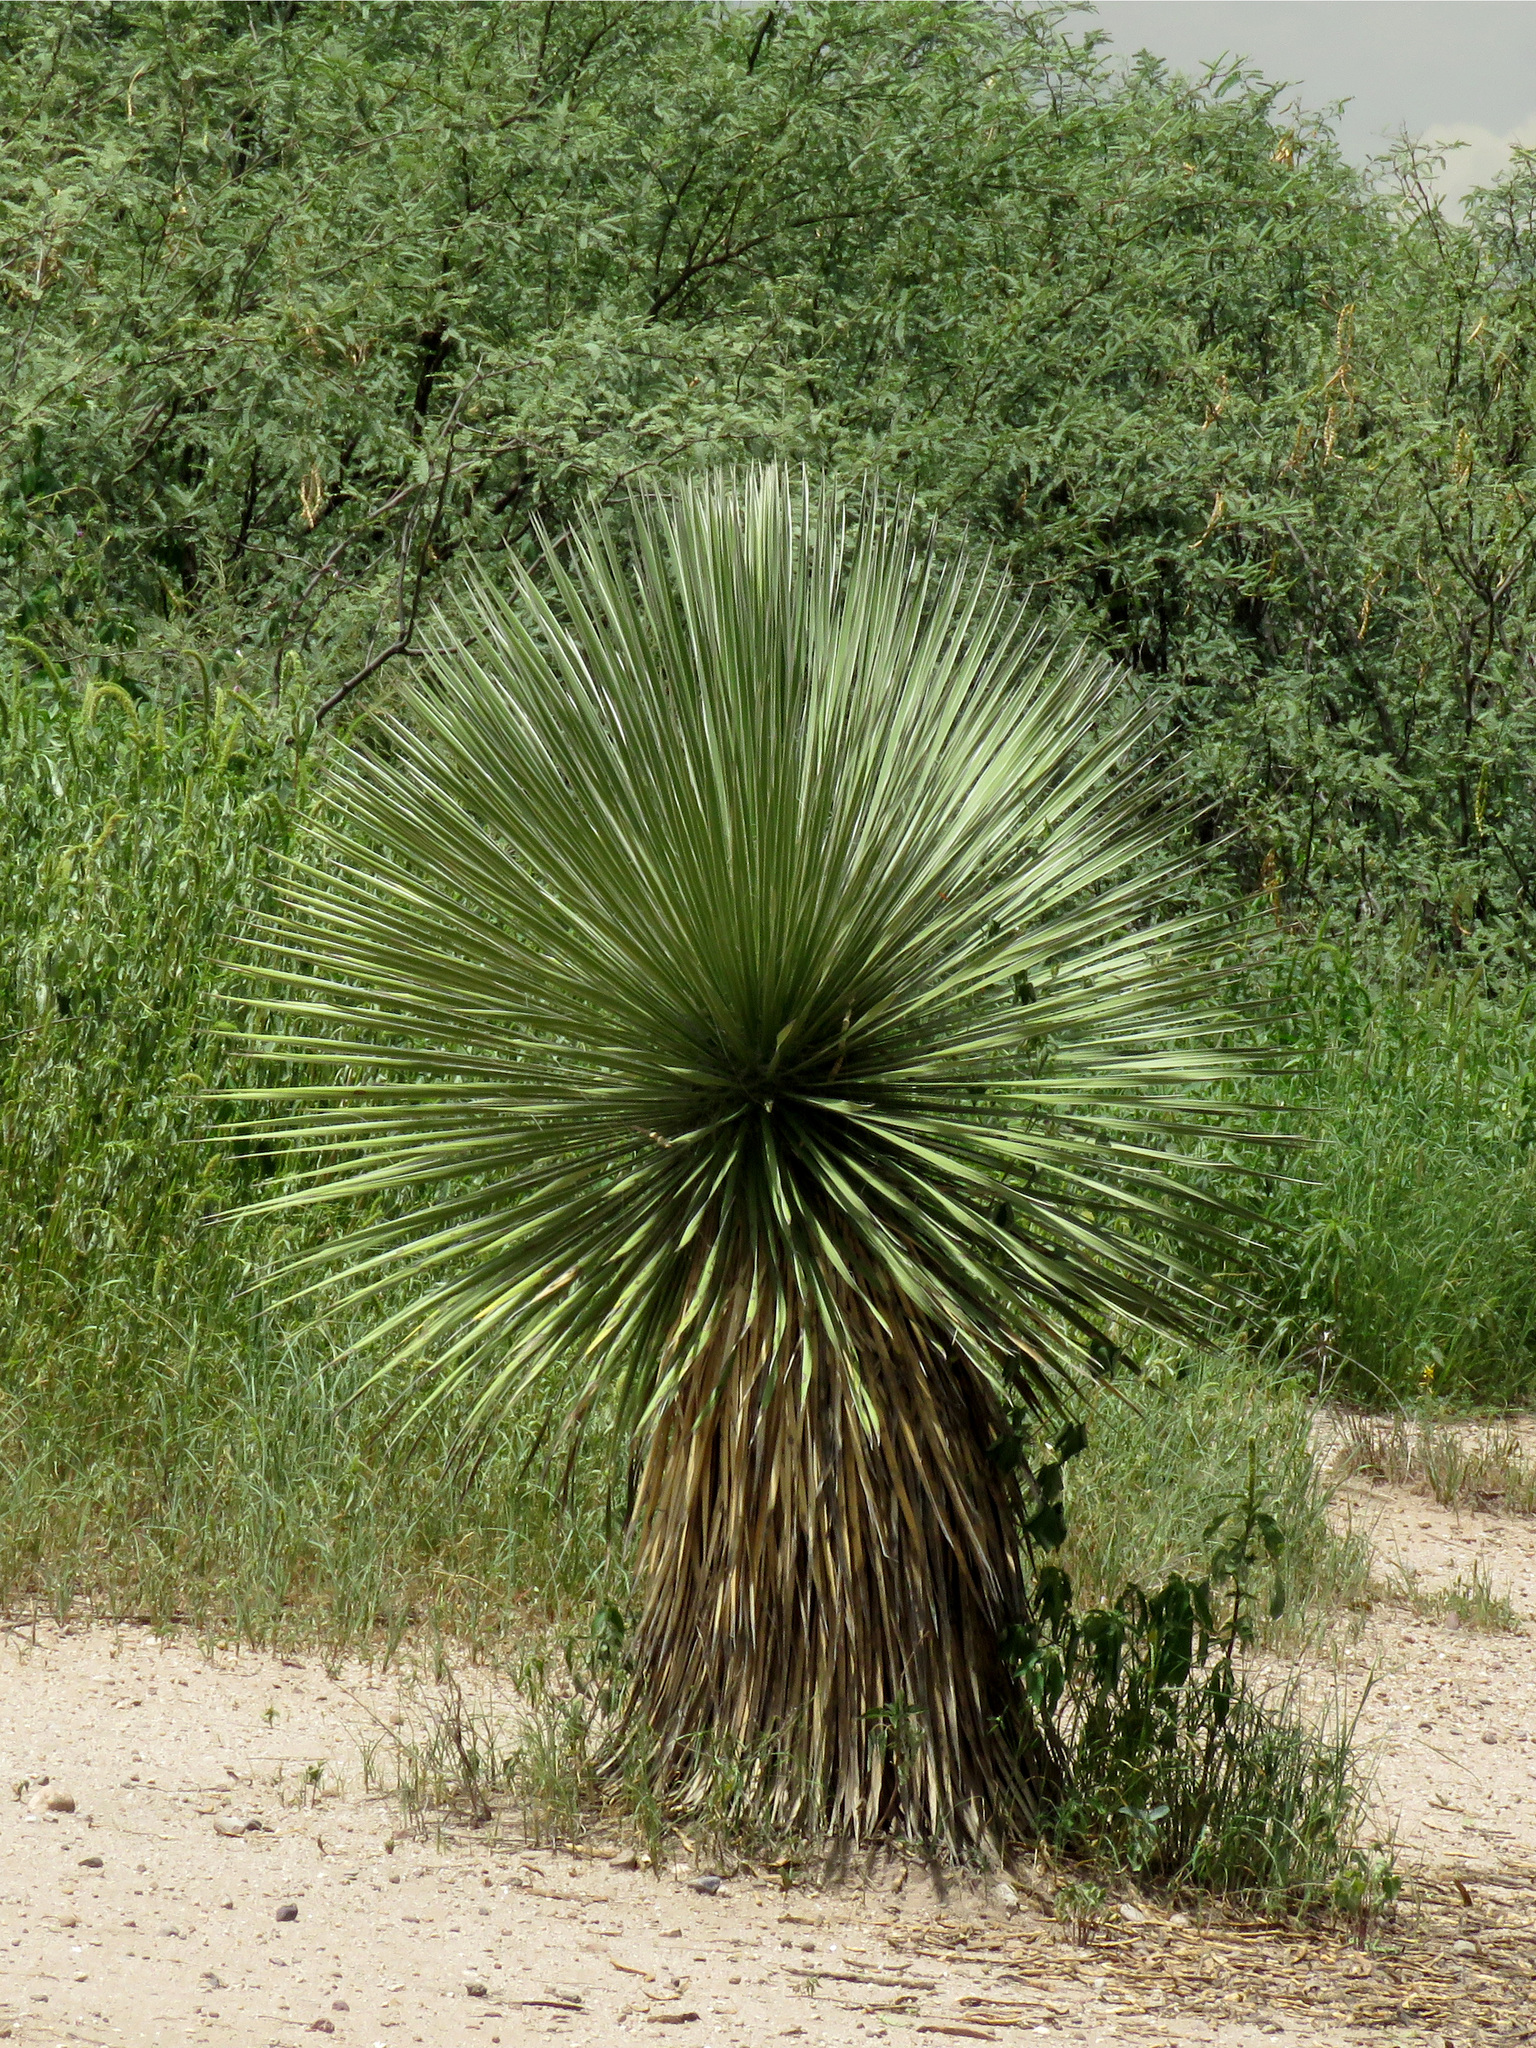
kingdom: Plantae
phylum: Tracheophyta
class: Liliopsida
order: Asparagales
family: Asparagaceae
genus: Yucca
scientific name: Yucca elata
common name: Palmella
